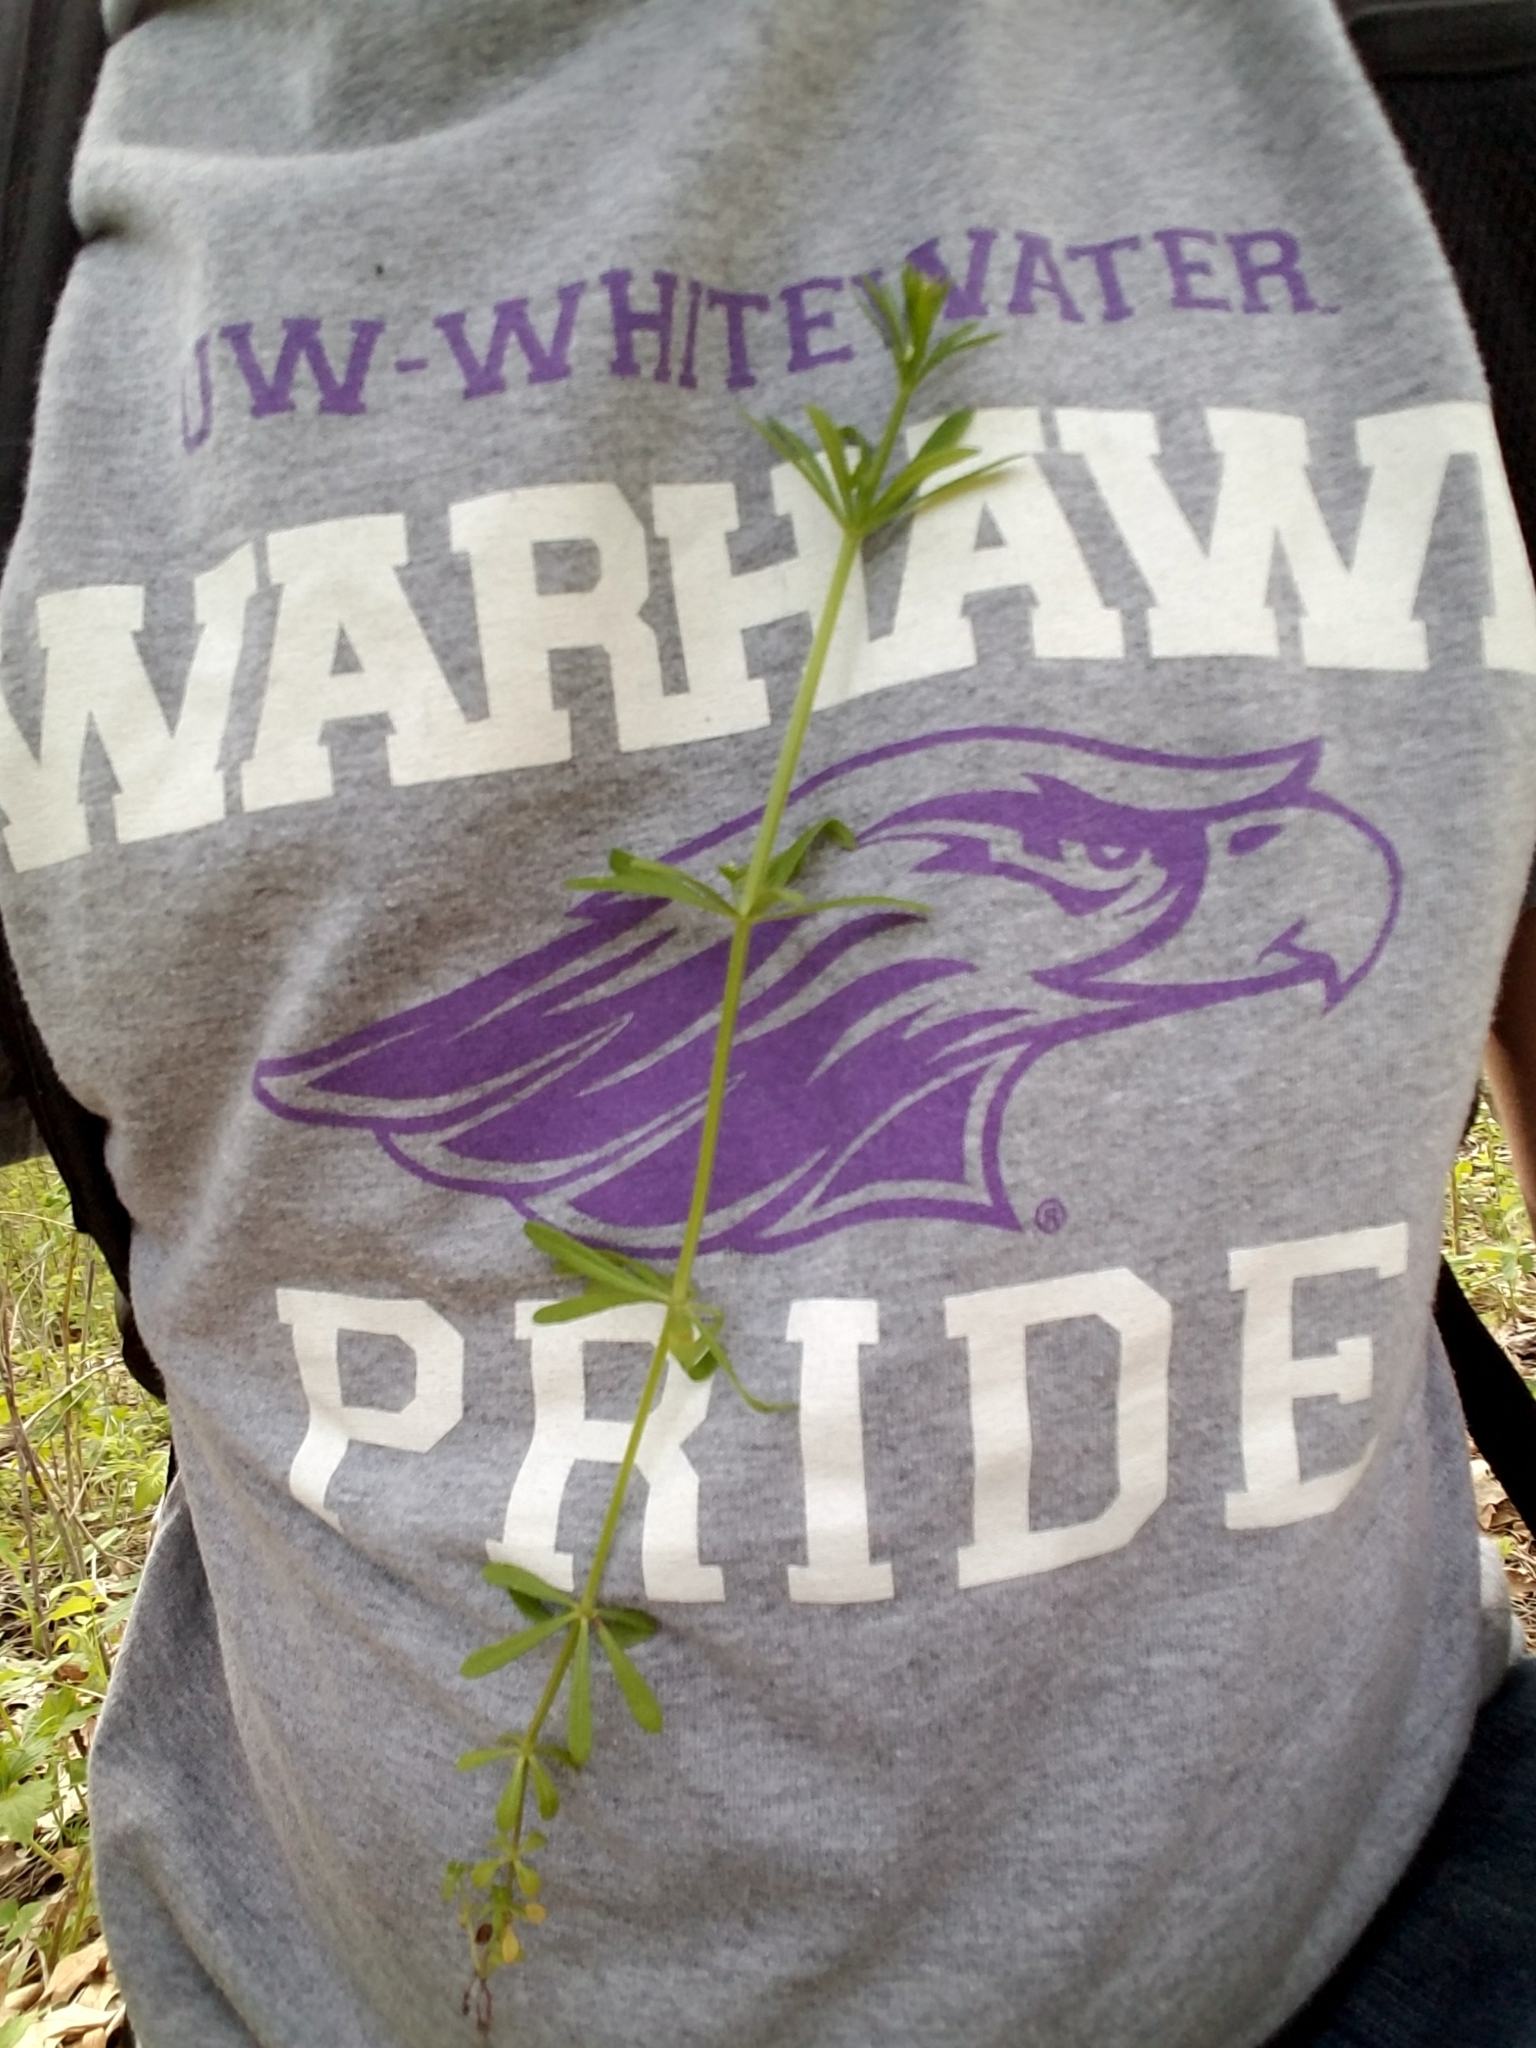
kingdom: Plantae
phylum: Tracheophyta
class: Magnoliopsida
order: Gentianales
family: Rubiaceae
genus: Galium
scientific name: Galium aparine
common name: Cleavers
